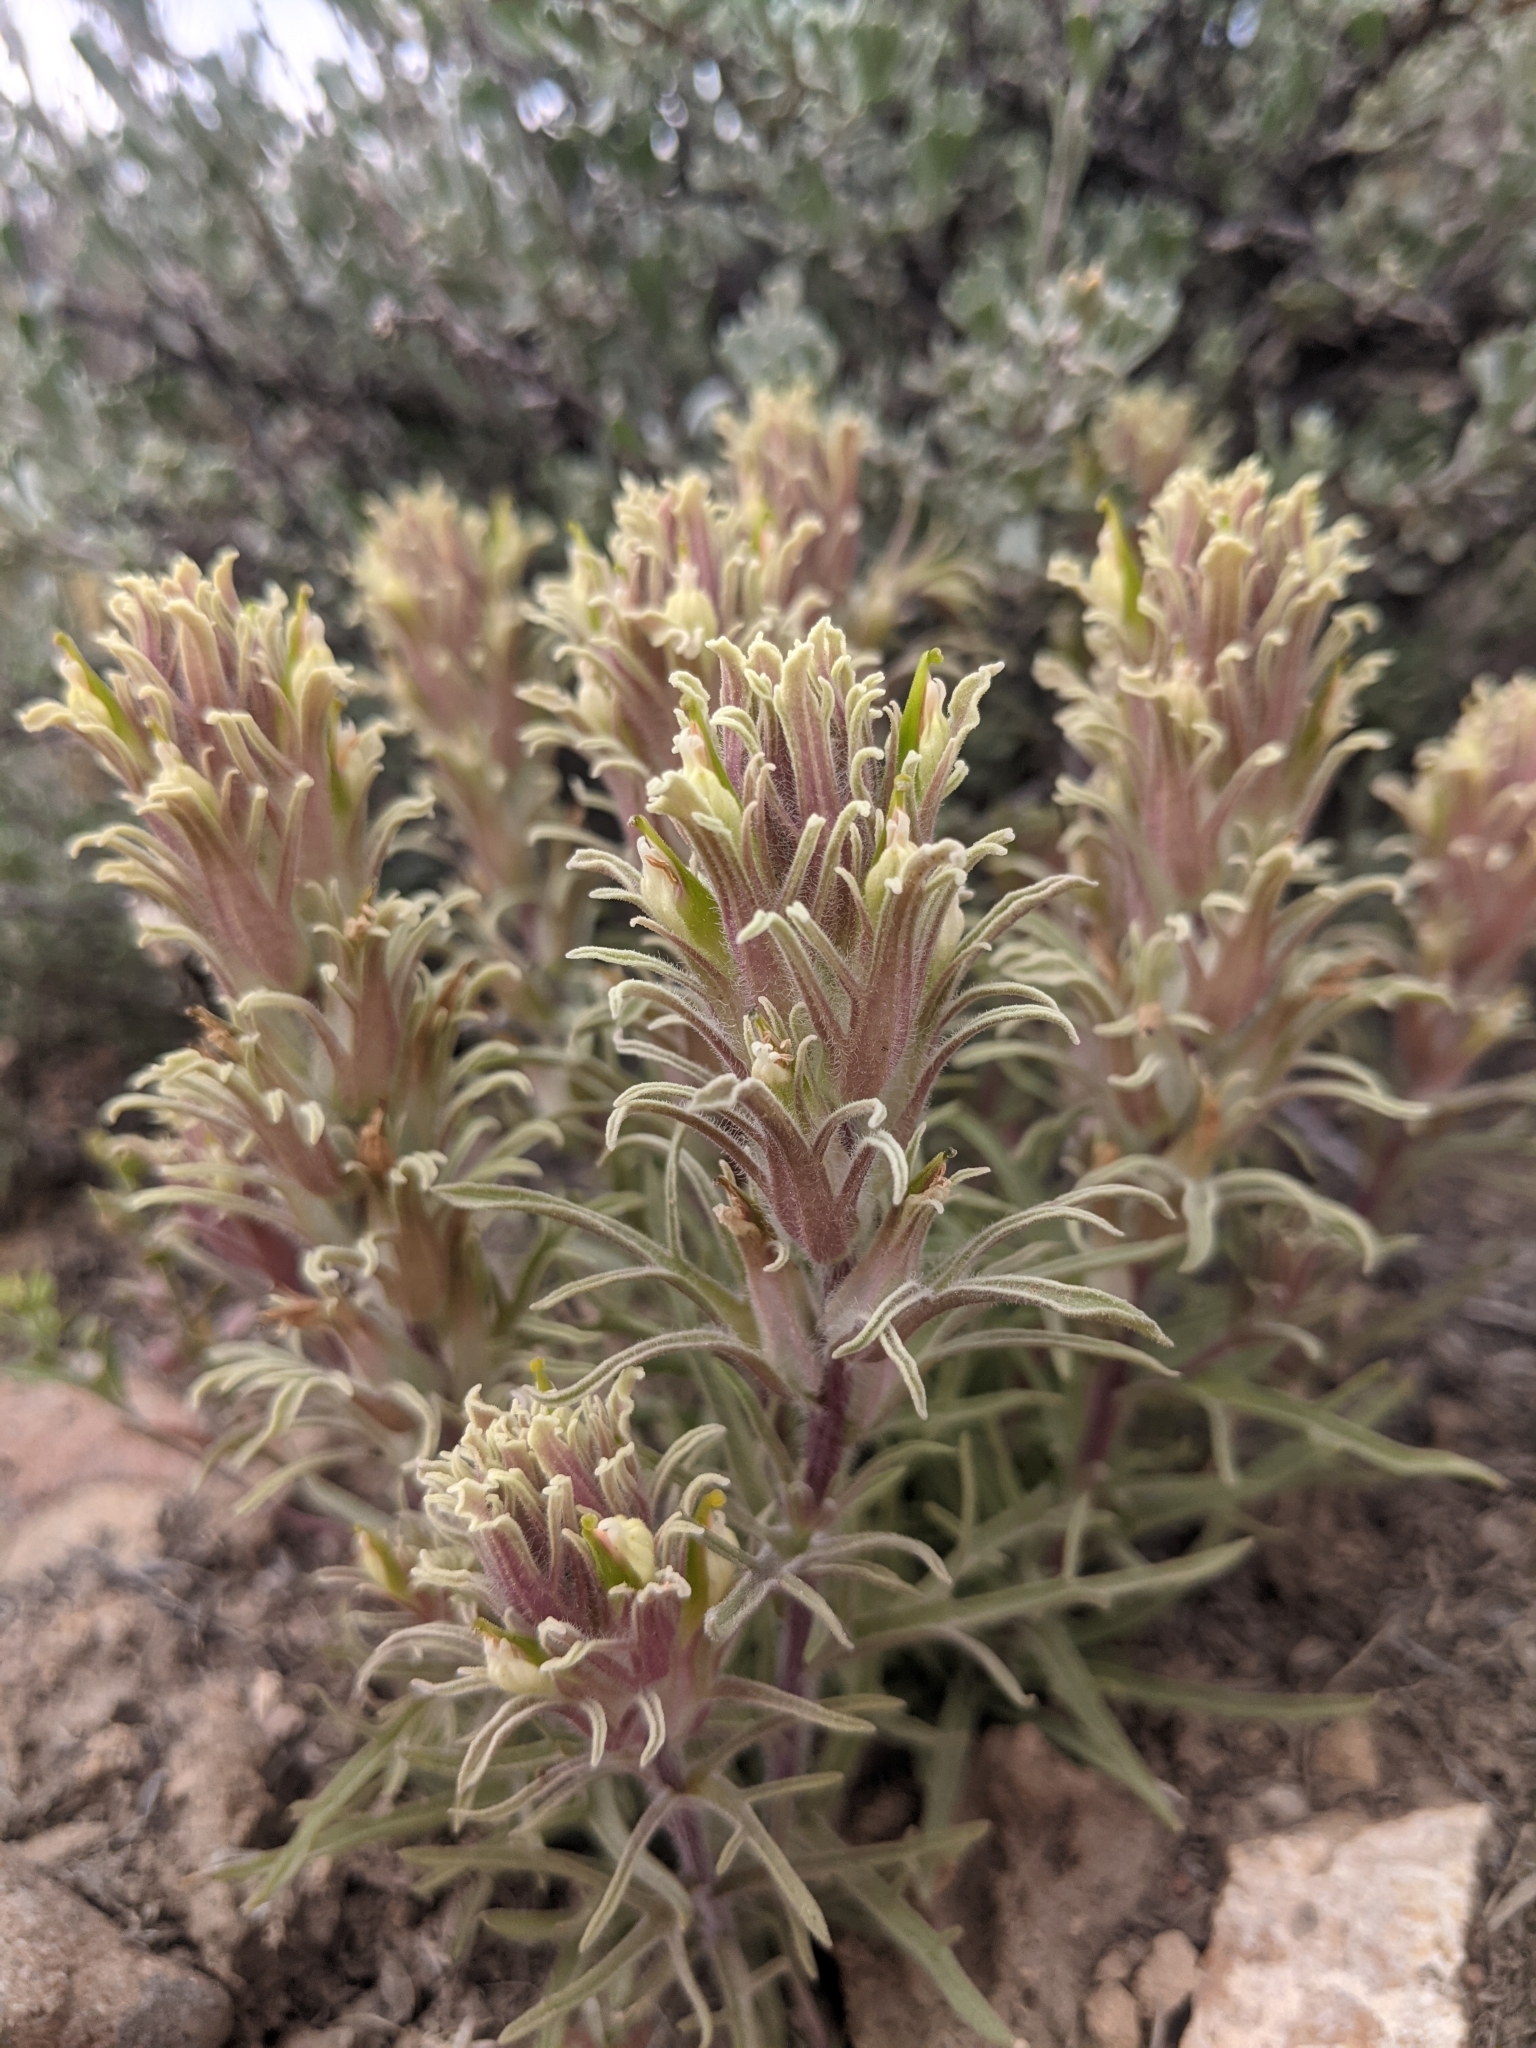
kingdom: Plantae
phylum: Tracheophyta
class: Magnoliopsida
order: Lamiales
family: Orobanchaceae
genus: Castilleja
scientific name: Castilleja pilosa
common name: Hairy paintbrush
